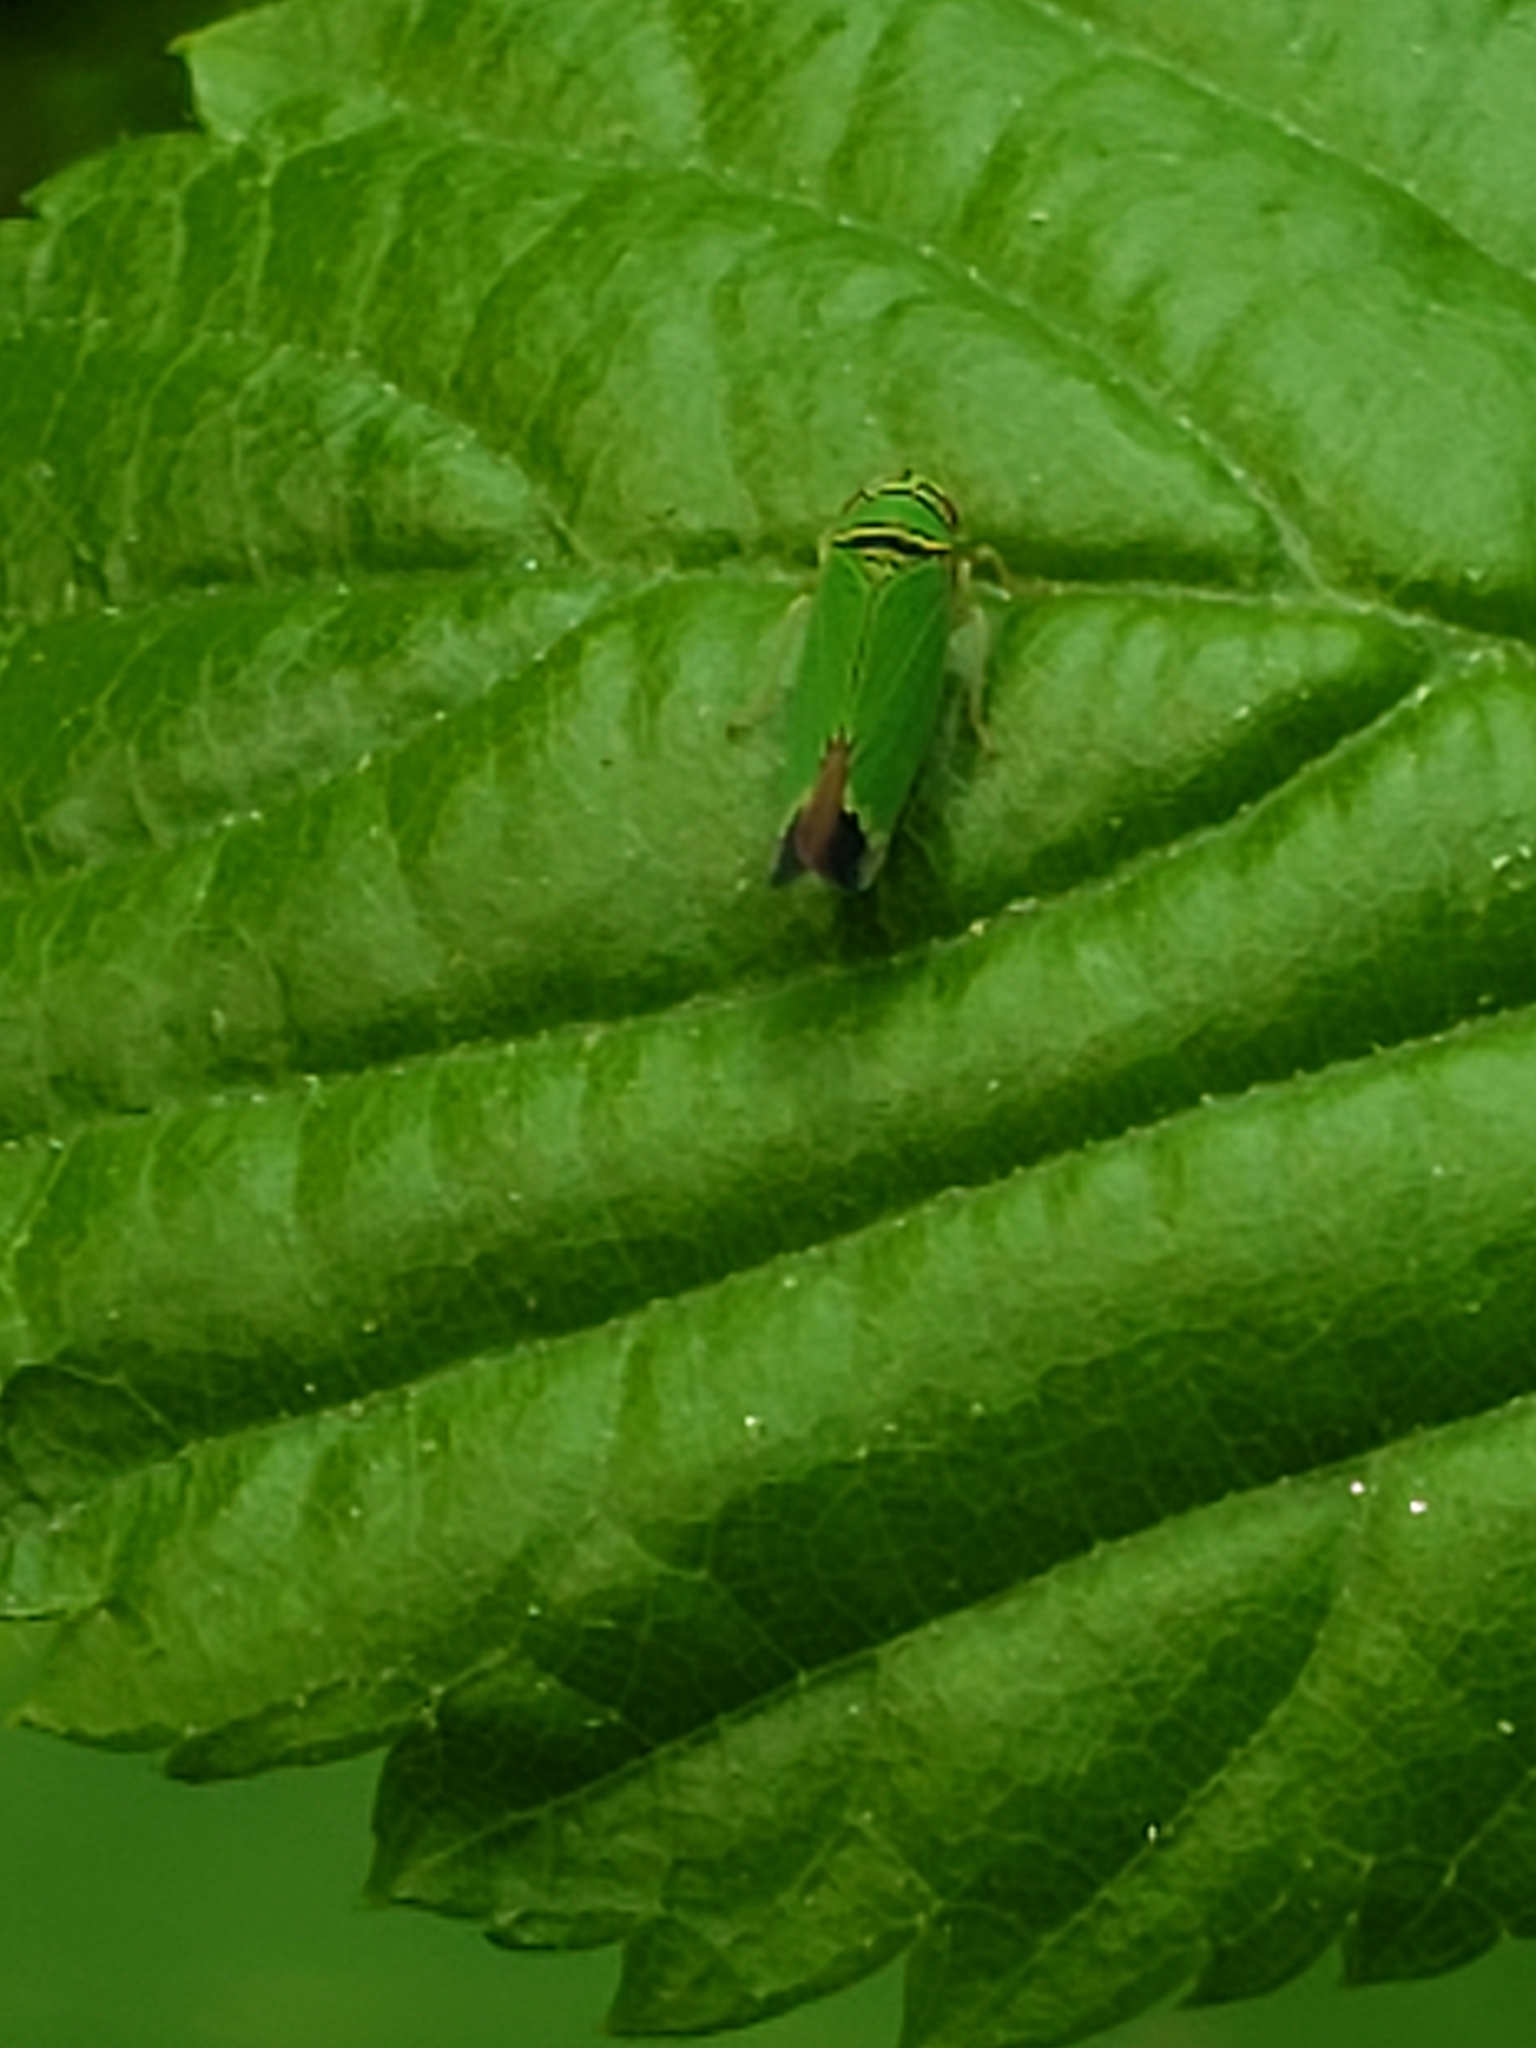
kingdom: Animalia
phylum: Arthropoda
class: Insecta
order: Hemiptera
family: Cicadellidae
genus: Tylozygus
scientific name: Tylozygus geometricus
